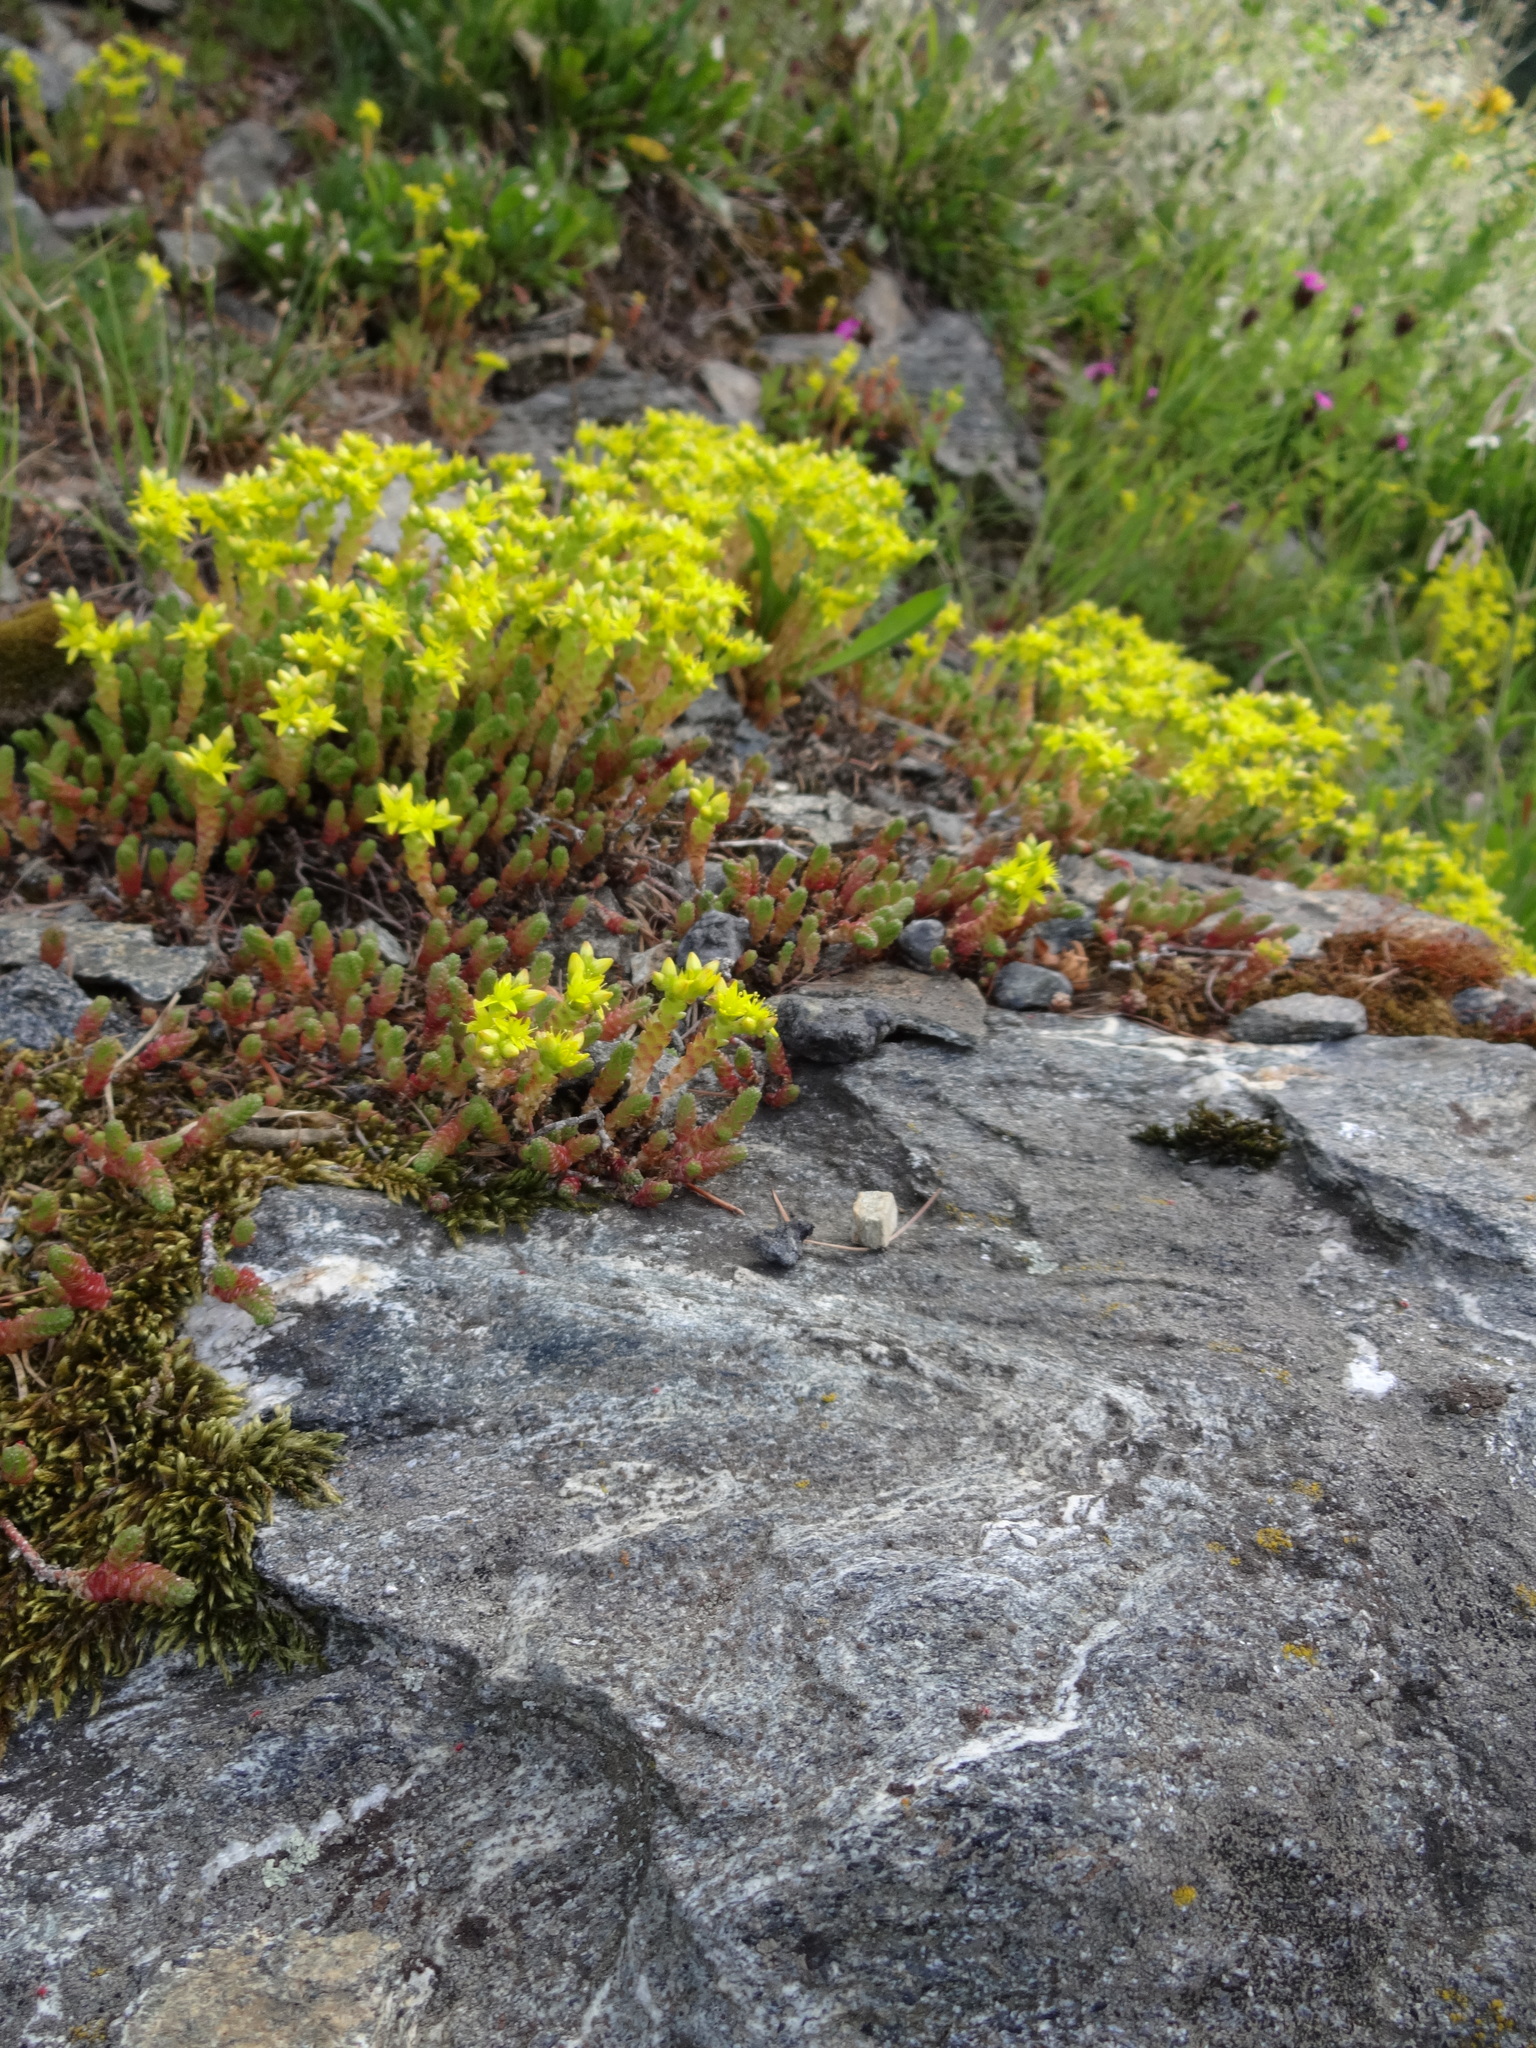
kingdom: Plantae
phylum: Tracheophyta
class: Magnoliopsida
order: Saxifragales
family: Crassulaceae
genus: Sedum
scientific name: Sedum acre
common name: Biting stonecrop
